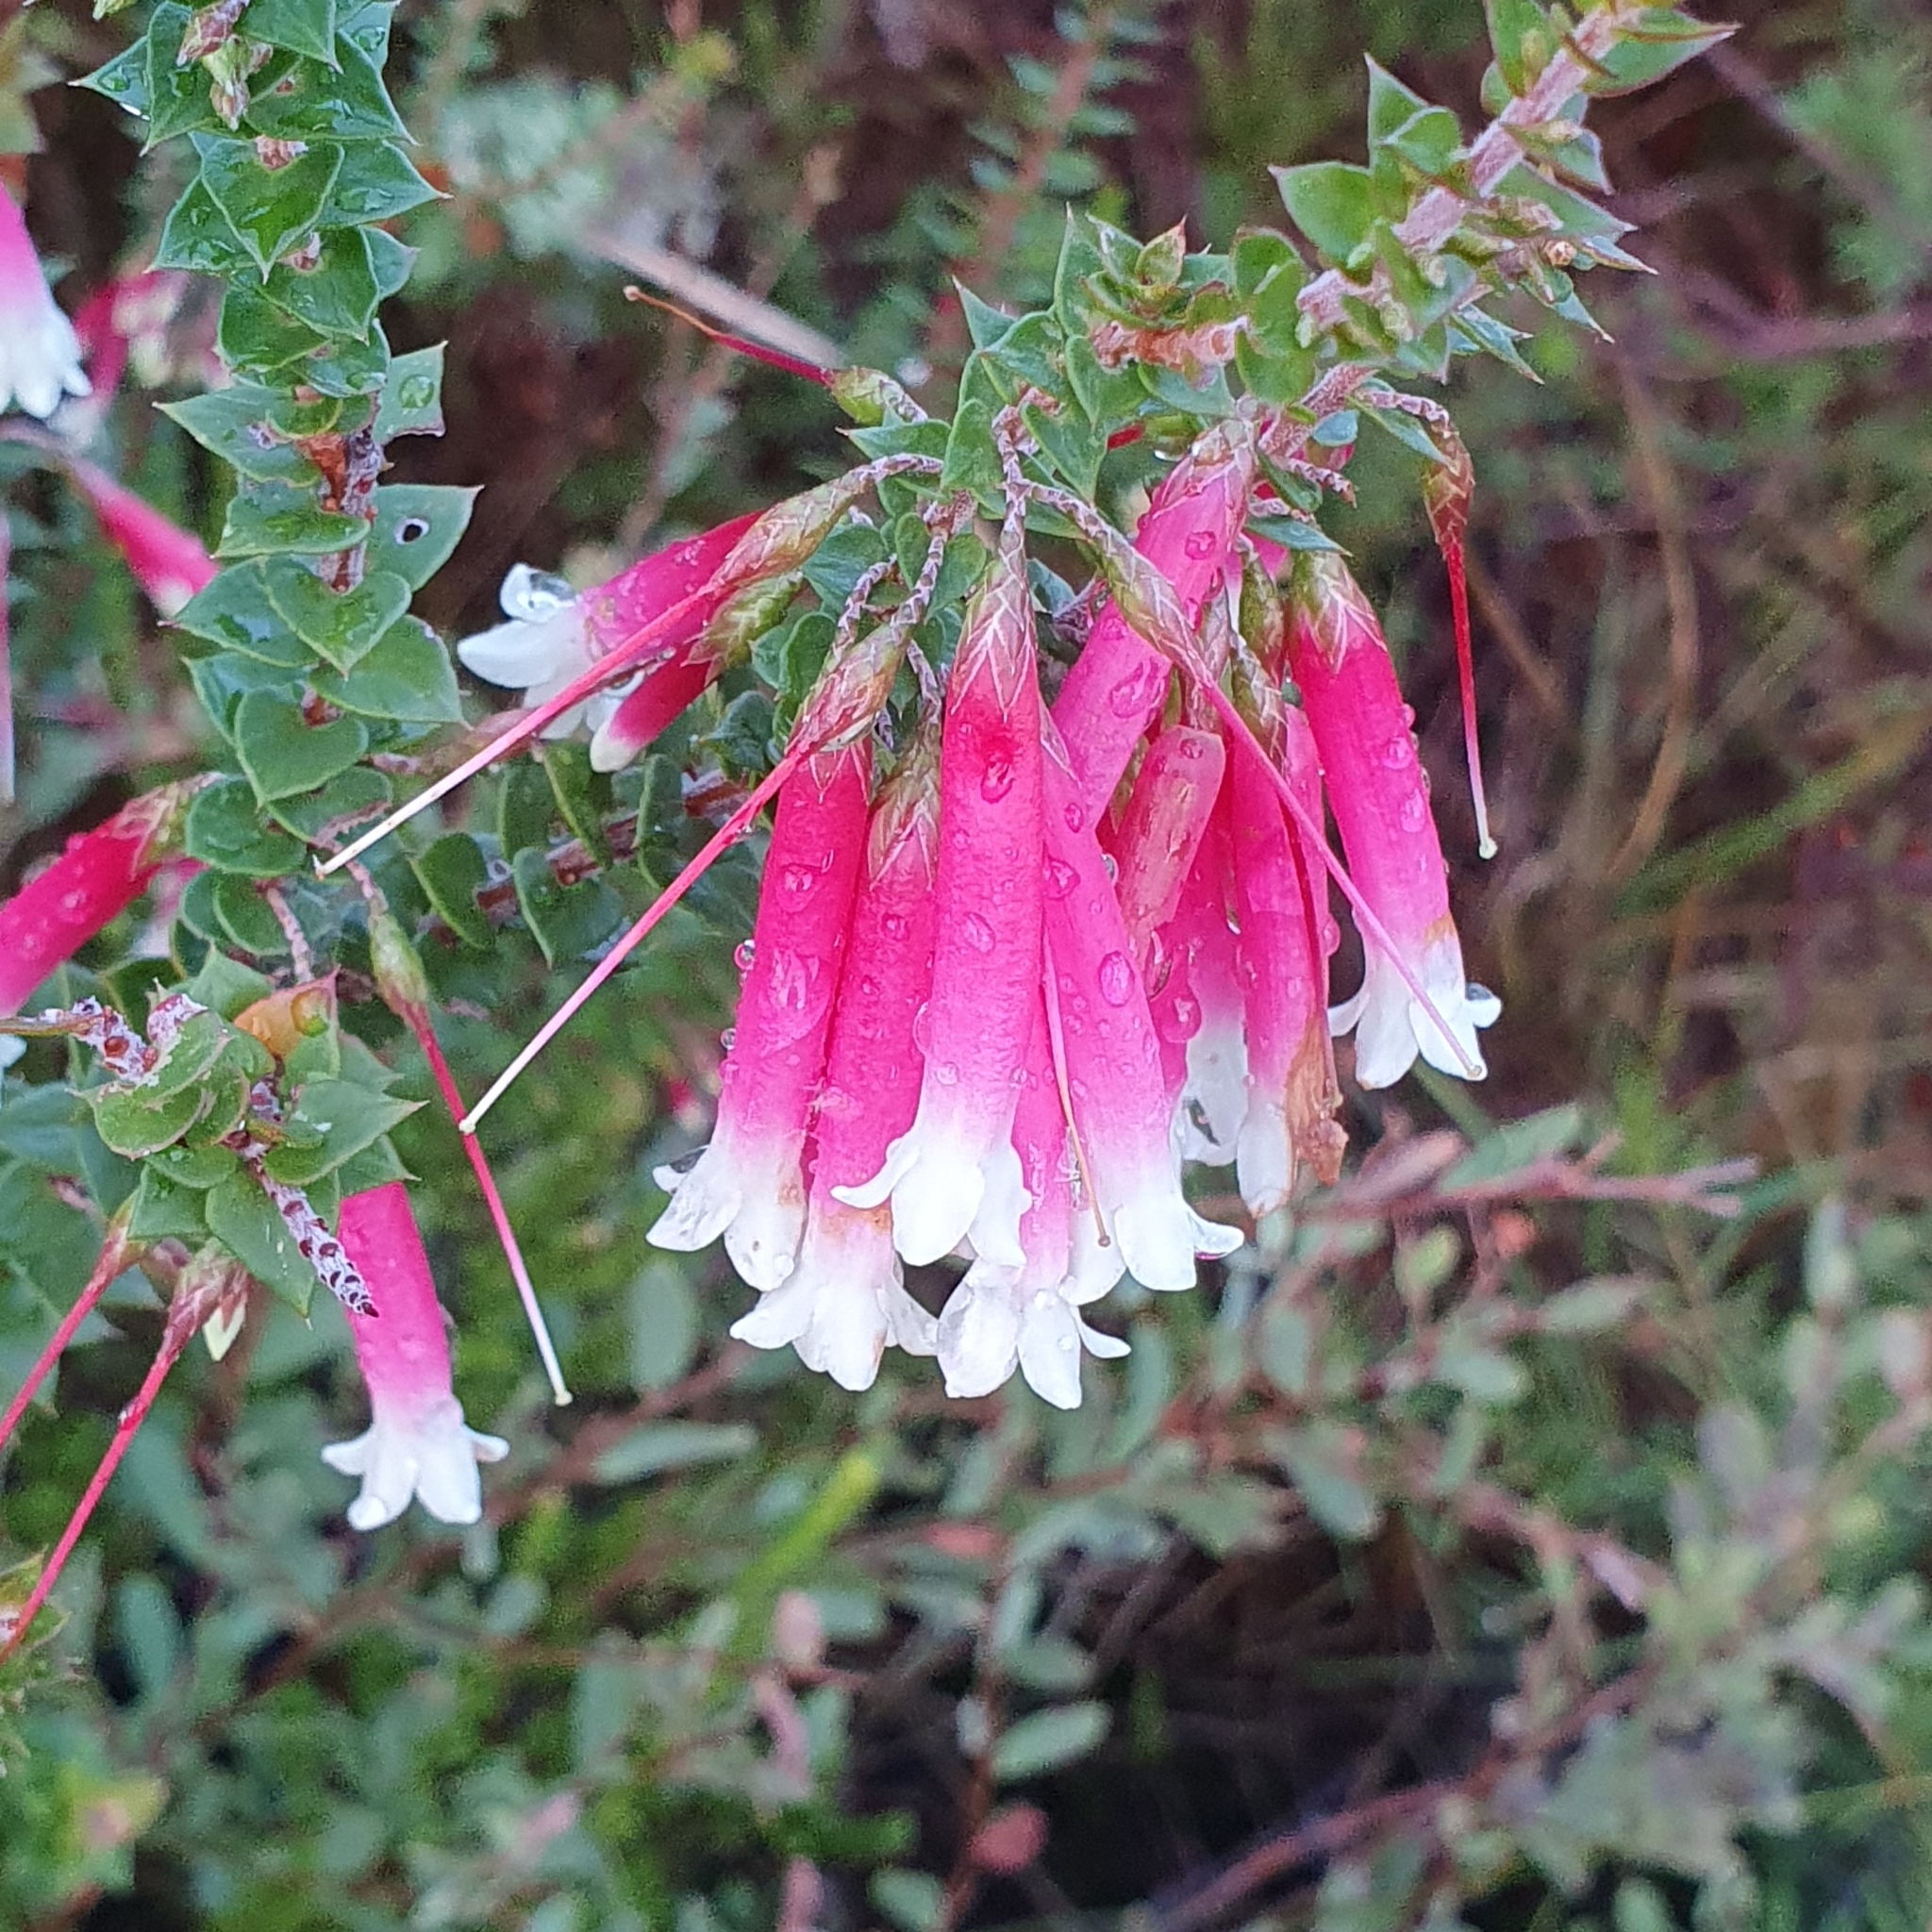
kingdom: Plantae
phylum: Tracheophyta
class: Magnoliopsida
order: Ericales
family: Ericaceae
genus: Epacris
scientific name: Epacris longiflora
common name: Fuchsia-heath
